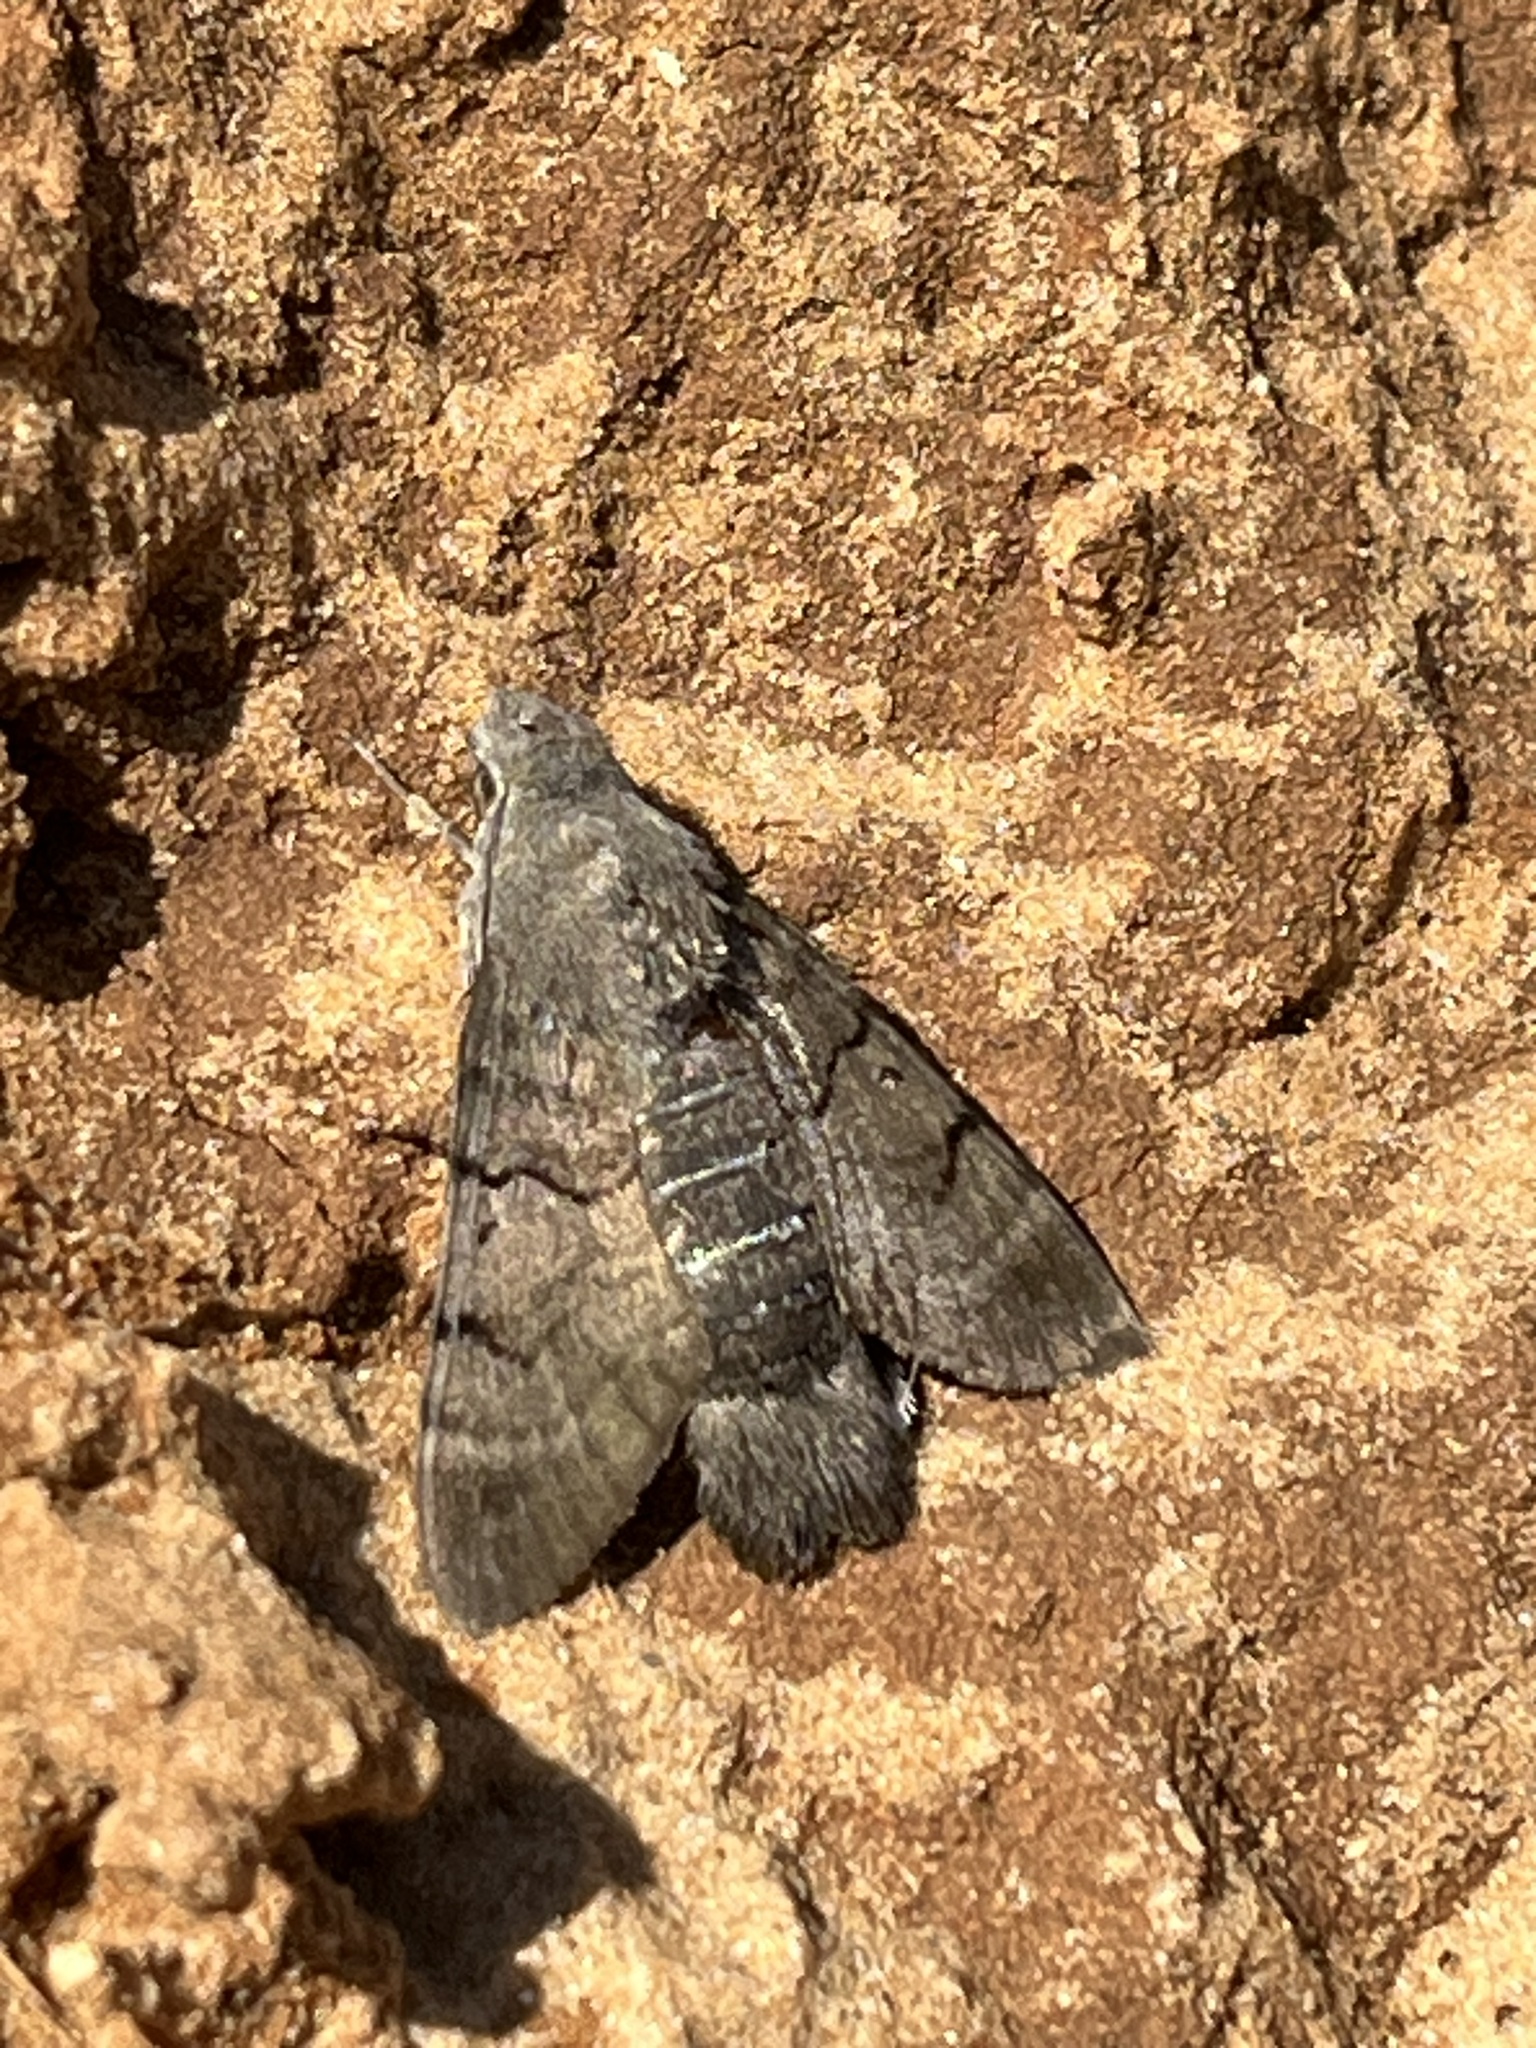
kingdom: Animalia
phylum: Arthropoda
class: Insecta
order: Lepidoptera
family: Sphingidae
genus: Macroglossum
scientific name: Macroglossum stellatarum
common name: Humming-bird hawk-moth
